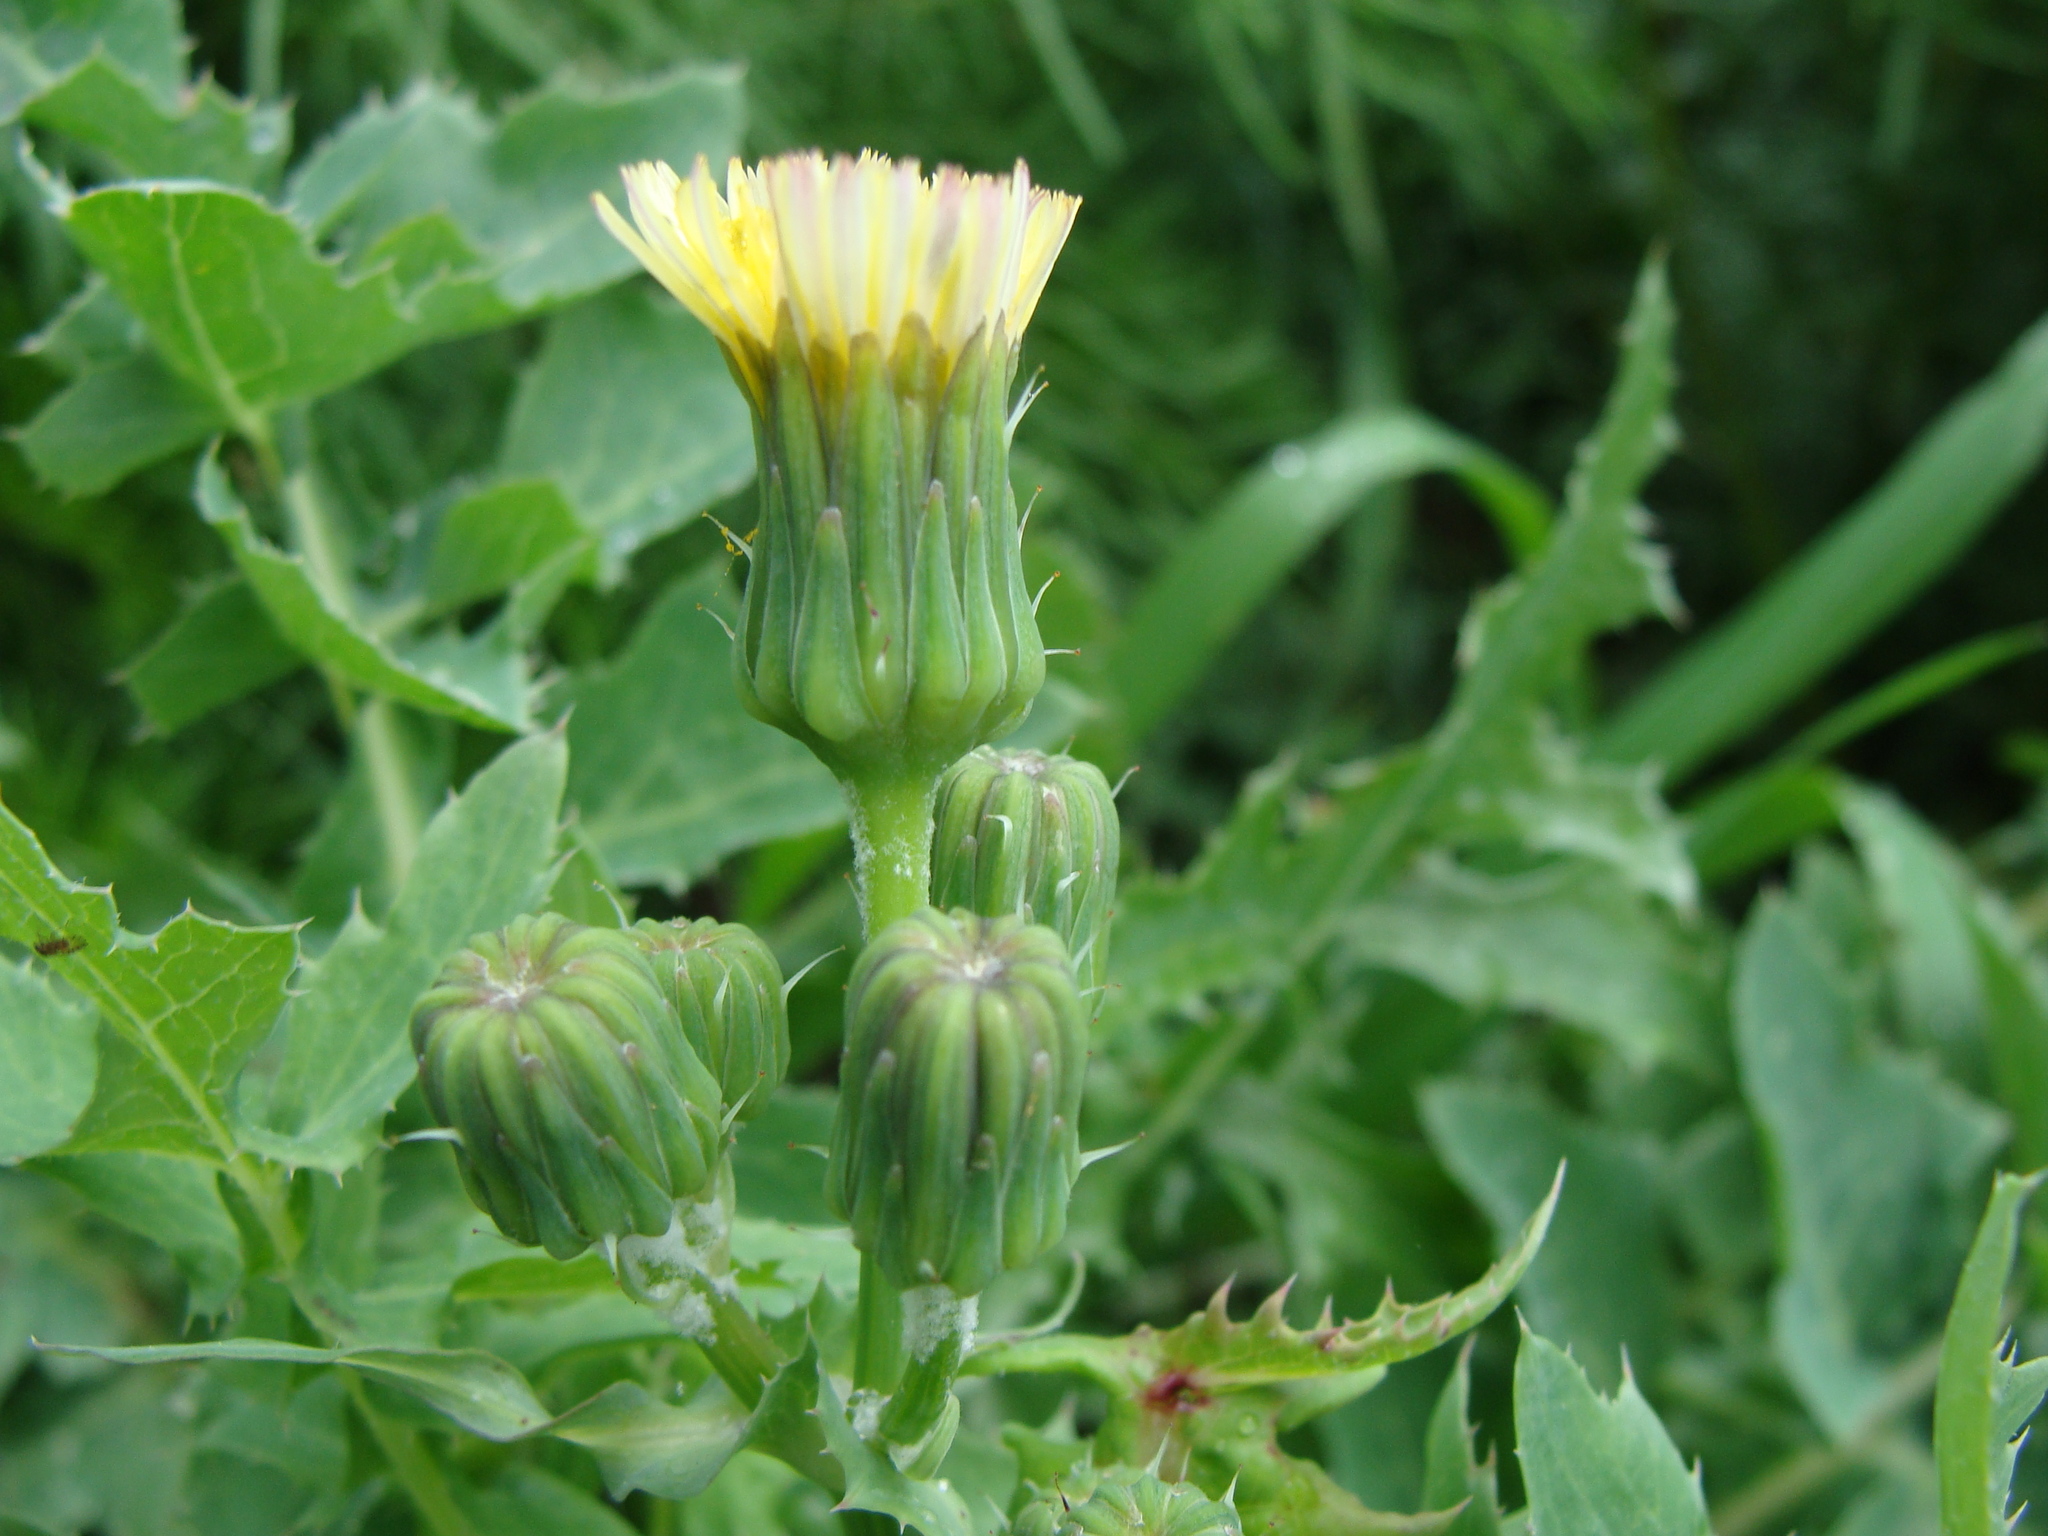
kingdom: Plantae
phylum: Tracheophyta
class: Magnoliopsida
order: Asterales
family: Asteraceae
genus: Sonchus
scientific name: Sonchus oleraceus
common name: Common sowthistle
